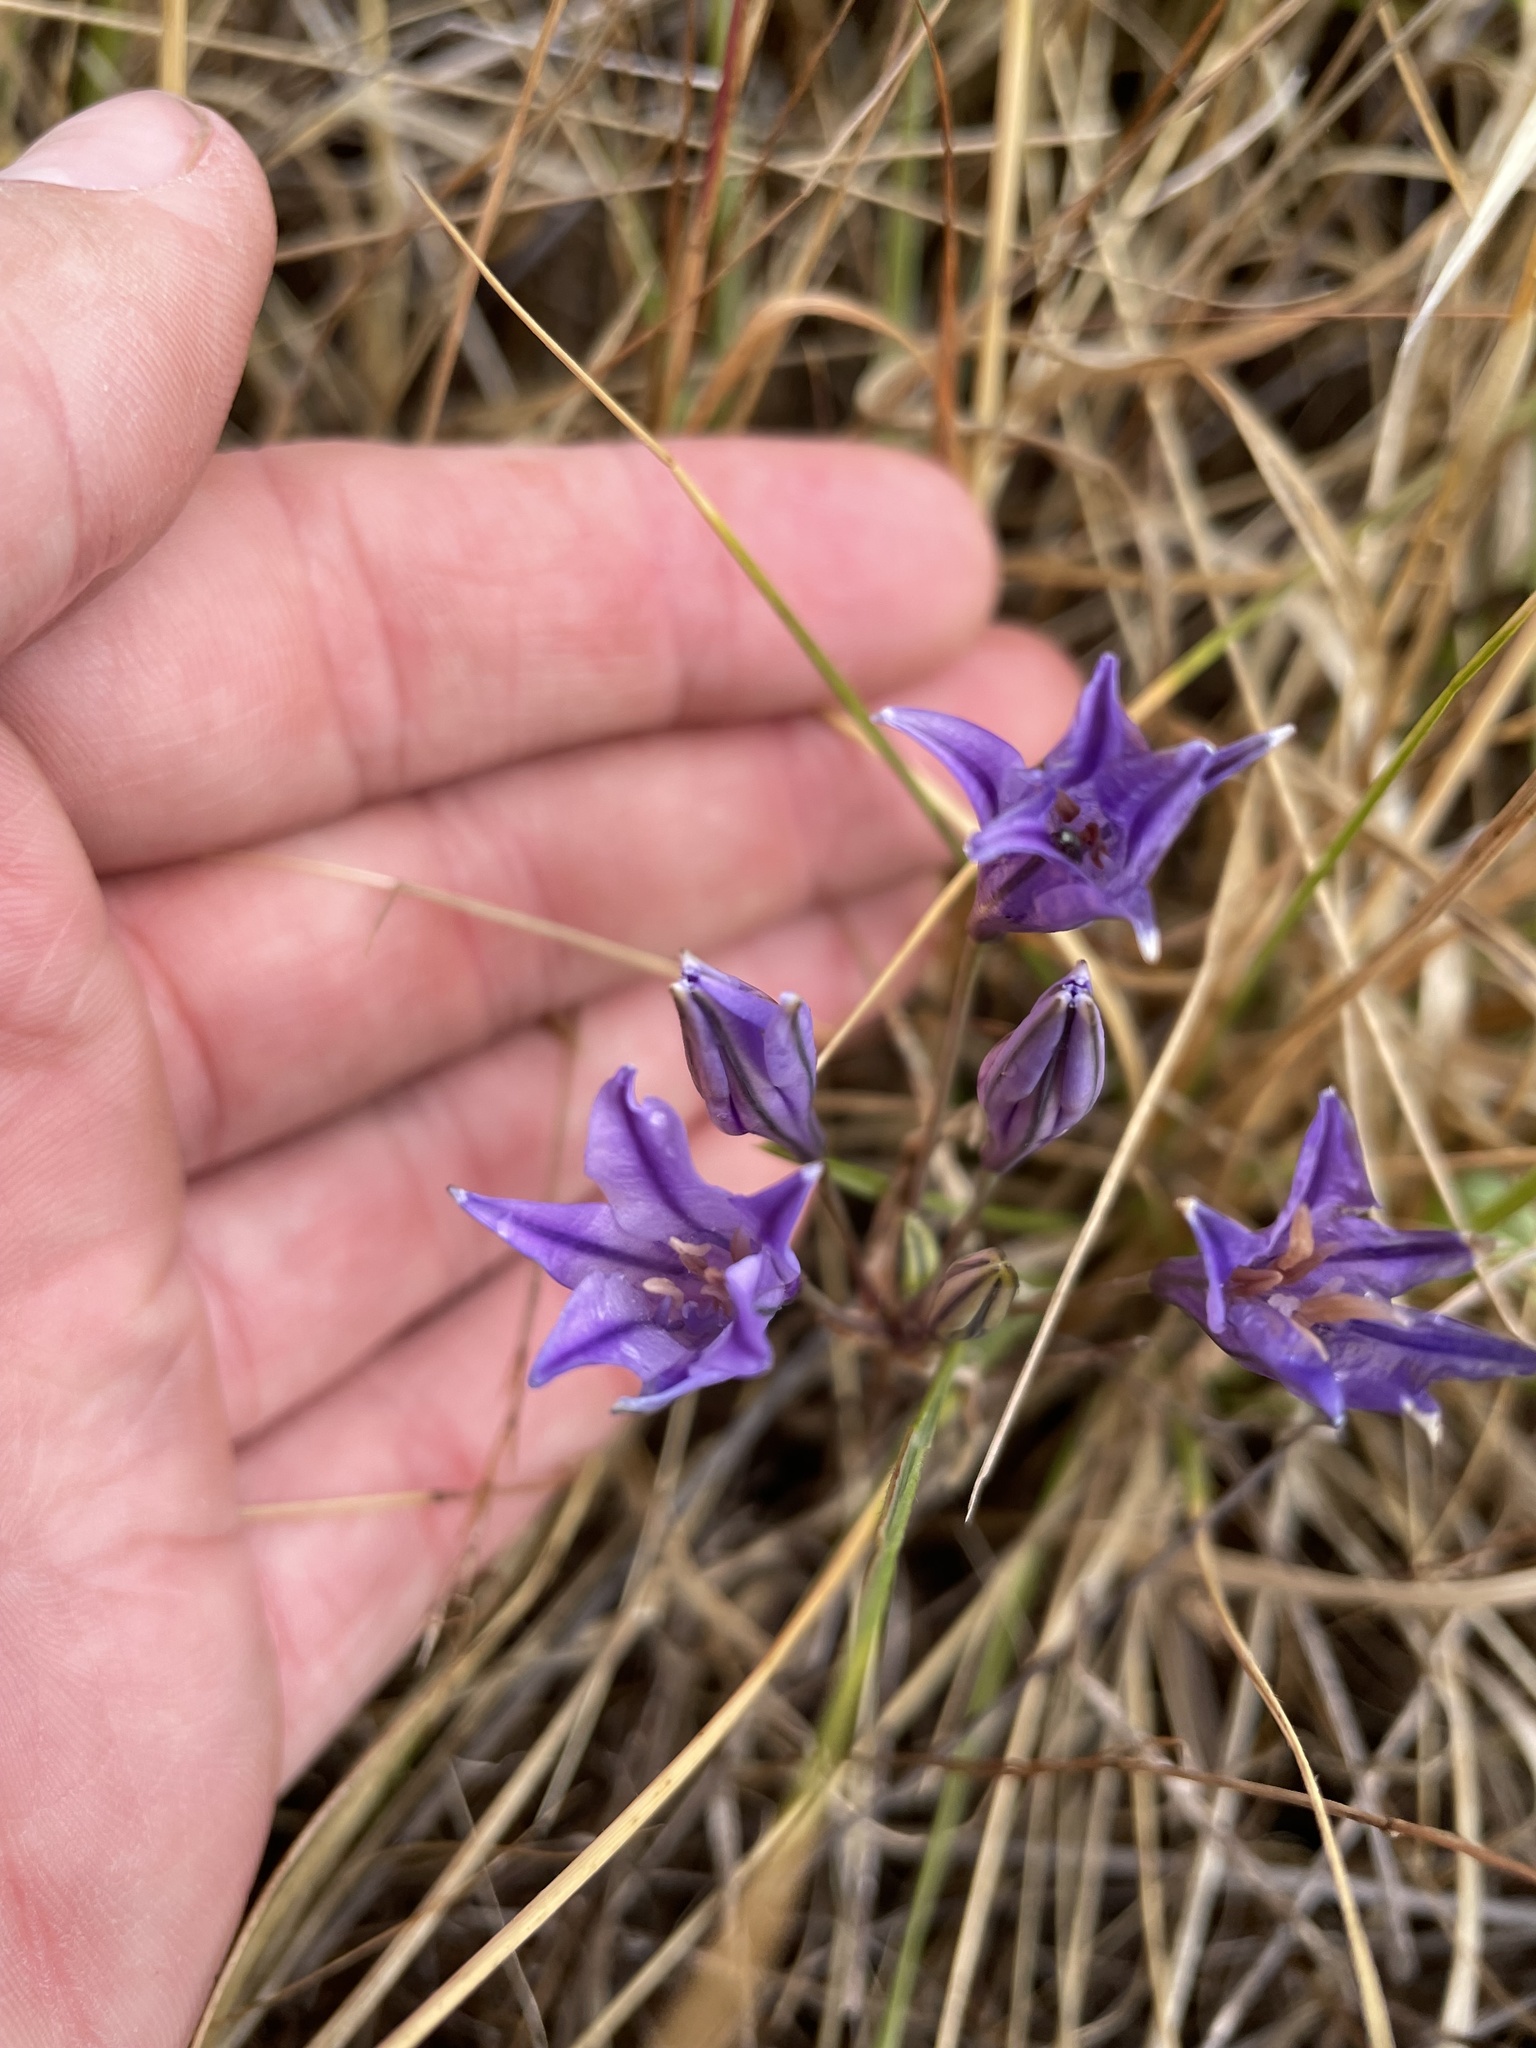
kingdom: Plantae
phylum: Tracheophyta
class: Liliopsida
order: Asparagales
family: Asparagaceae
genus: Triteleia
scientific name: Triteleia laxa
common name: Triplet-lily
